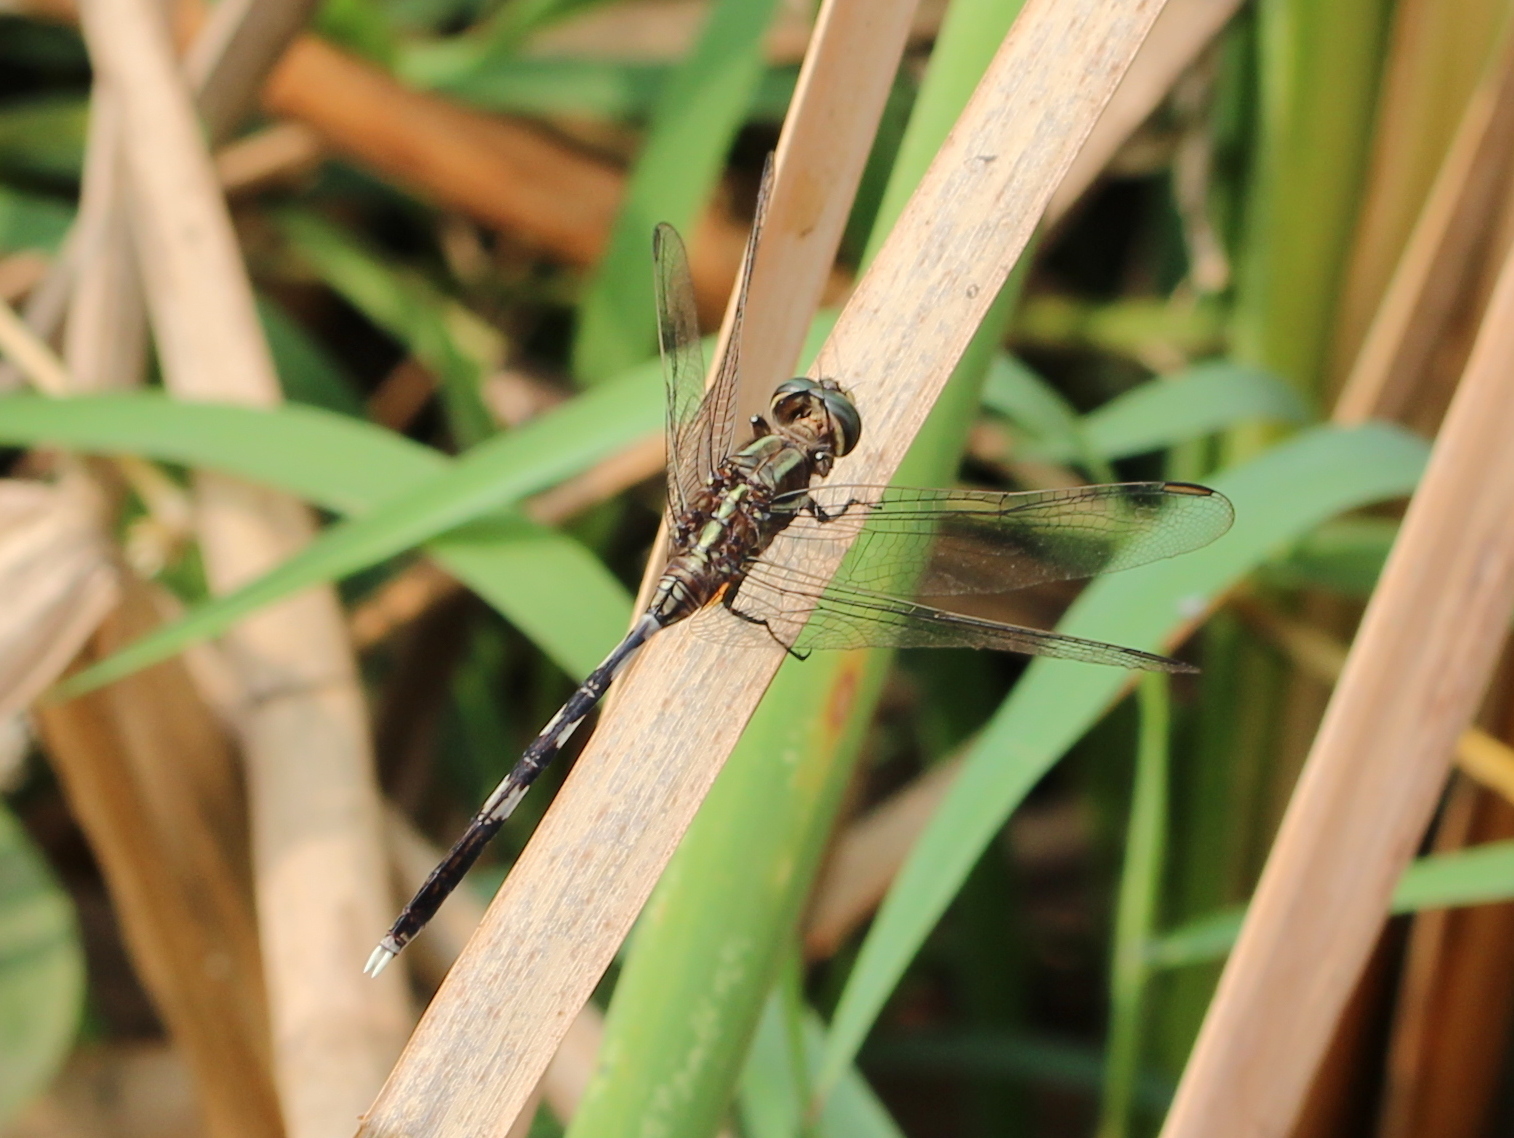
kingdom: Animalia
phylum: Arthropoda
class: Insecta
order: Odonata
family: Libellulidae
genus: Orthetrum
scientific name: Orthetrum sabina
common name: Slender skimmer
